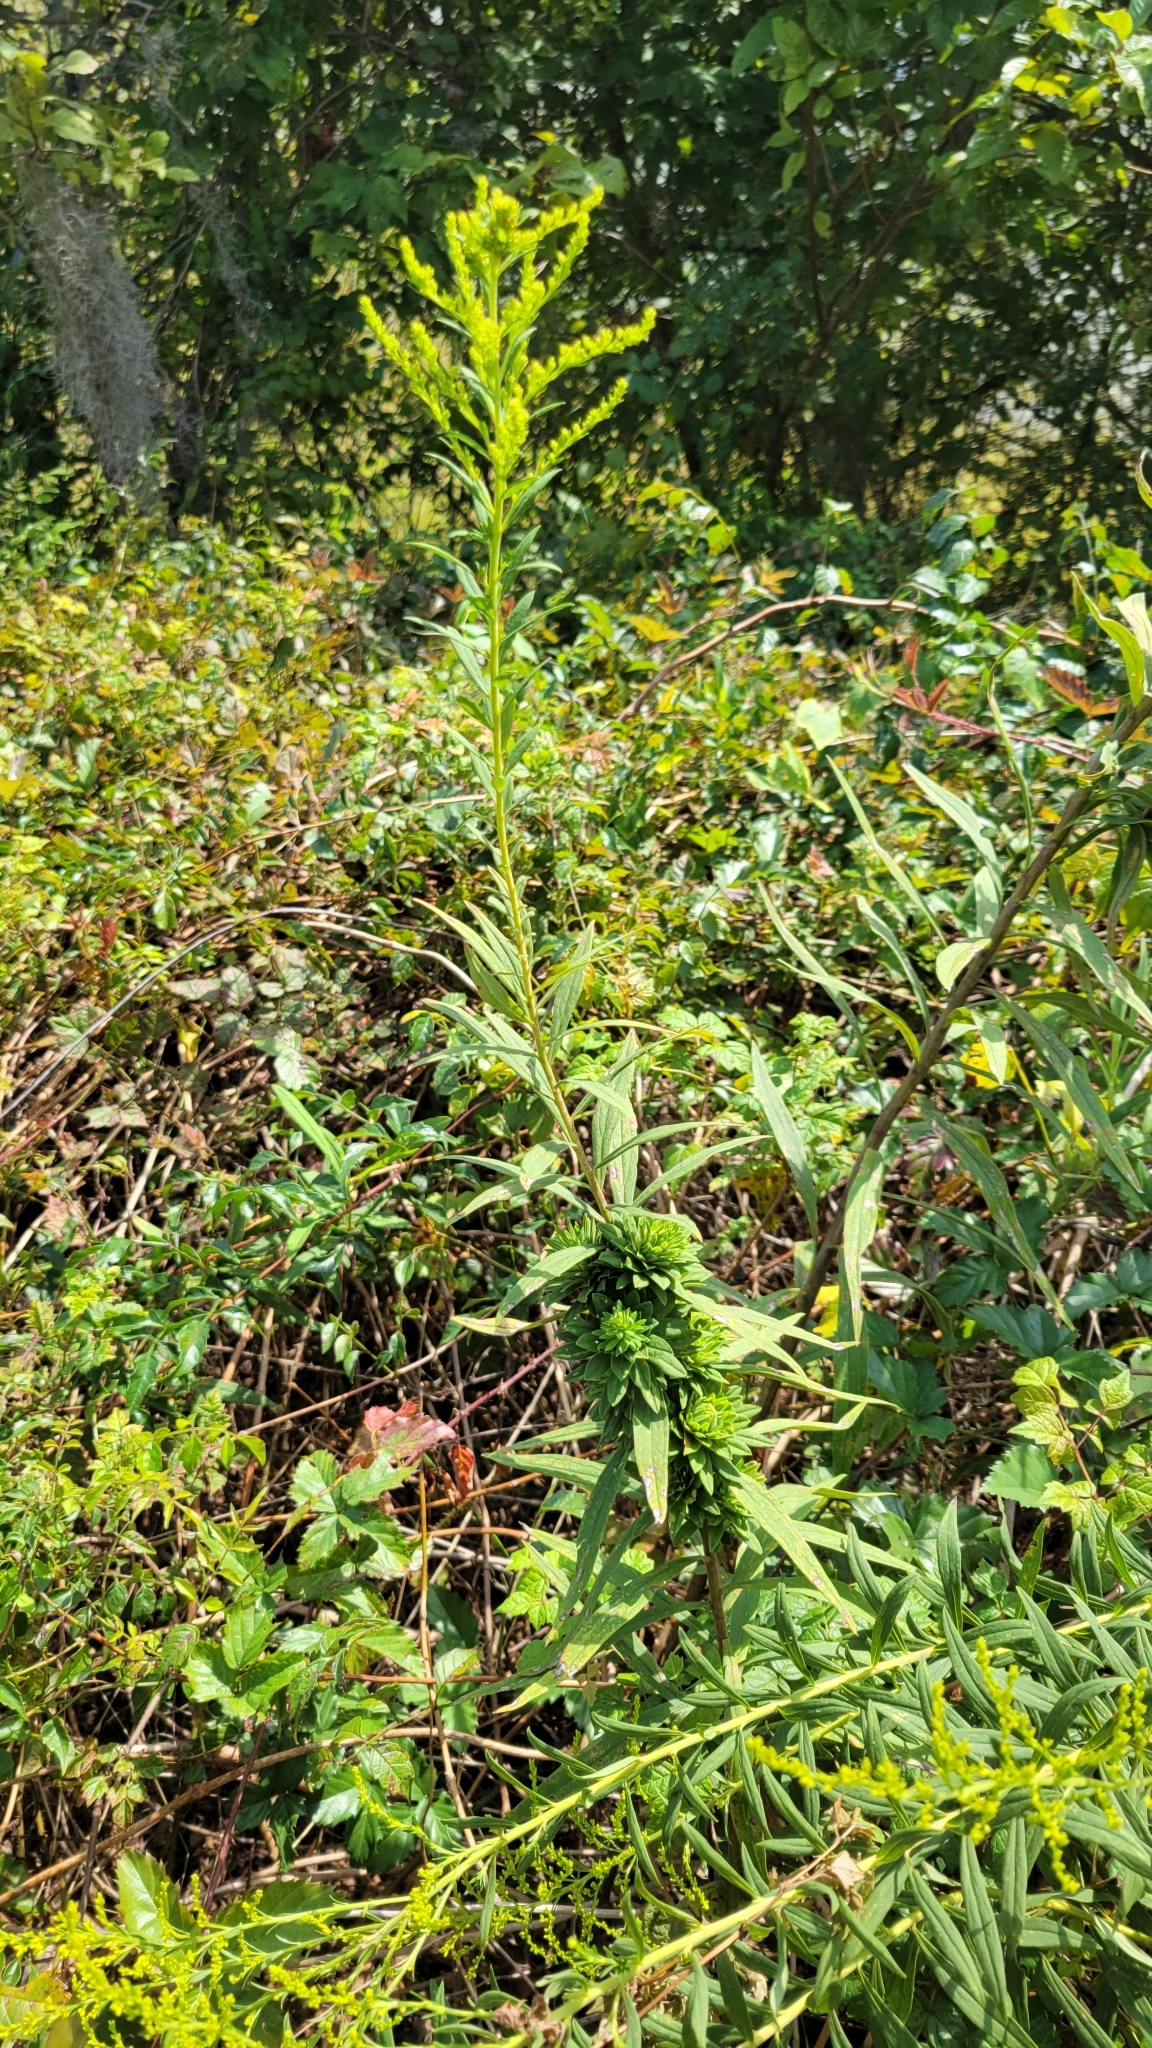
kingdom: Animalia
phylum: Arthropoda
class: Insecta
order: Diptera
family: Tephritidae
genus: Procecidochares
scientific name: Procecidochares atra
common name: Goldenrod brussels sprout gall fly
